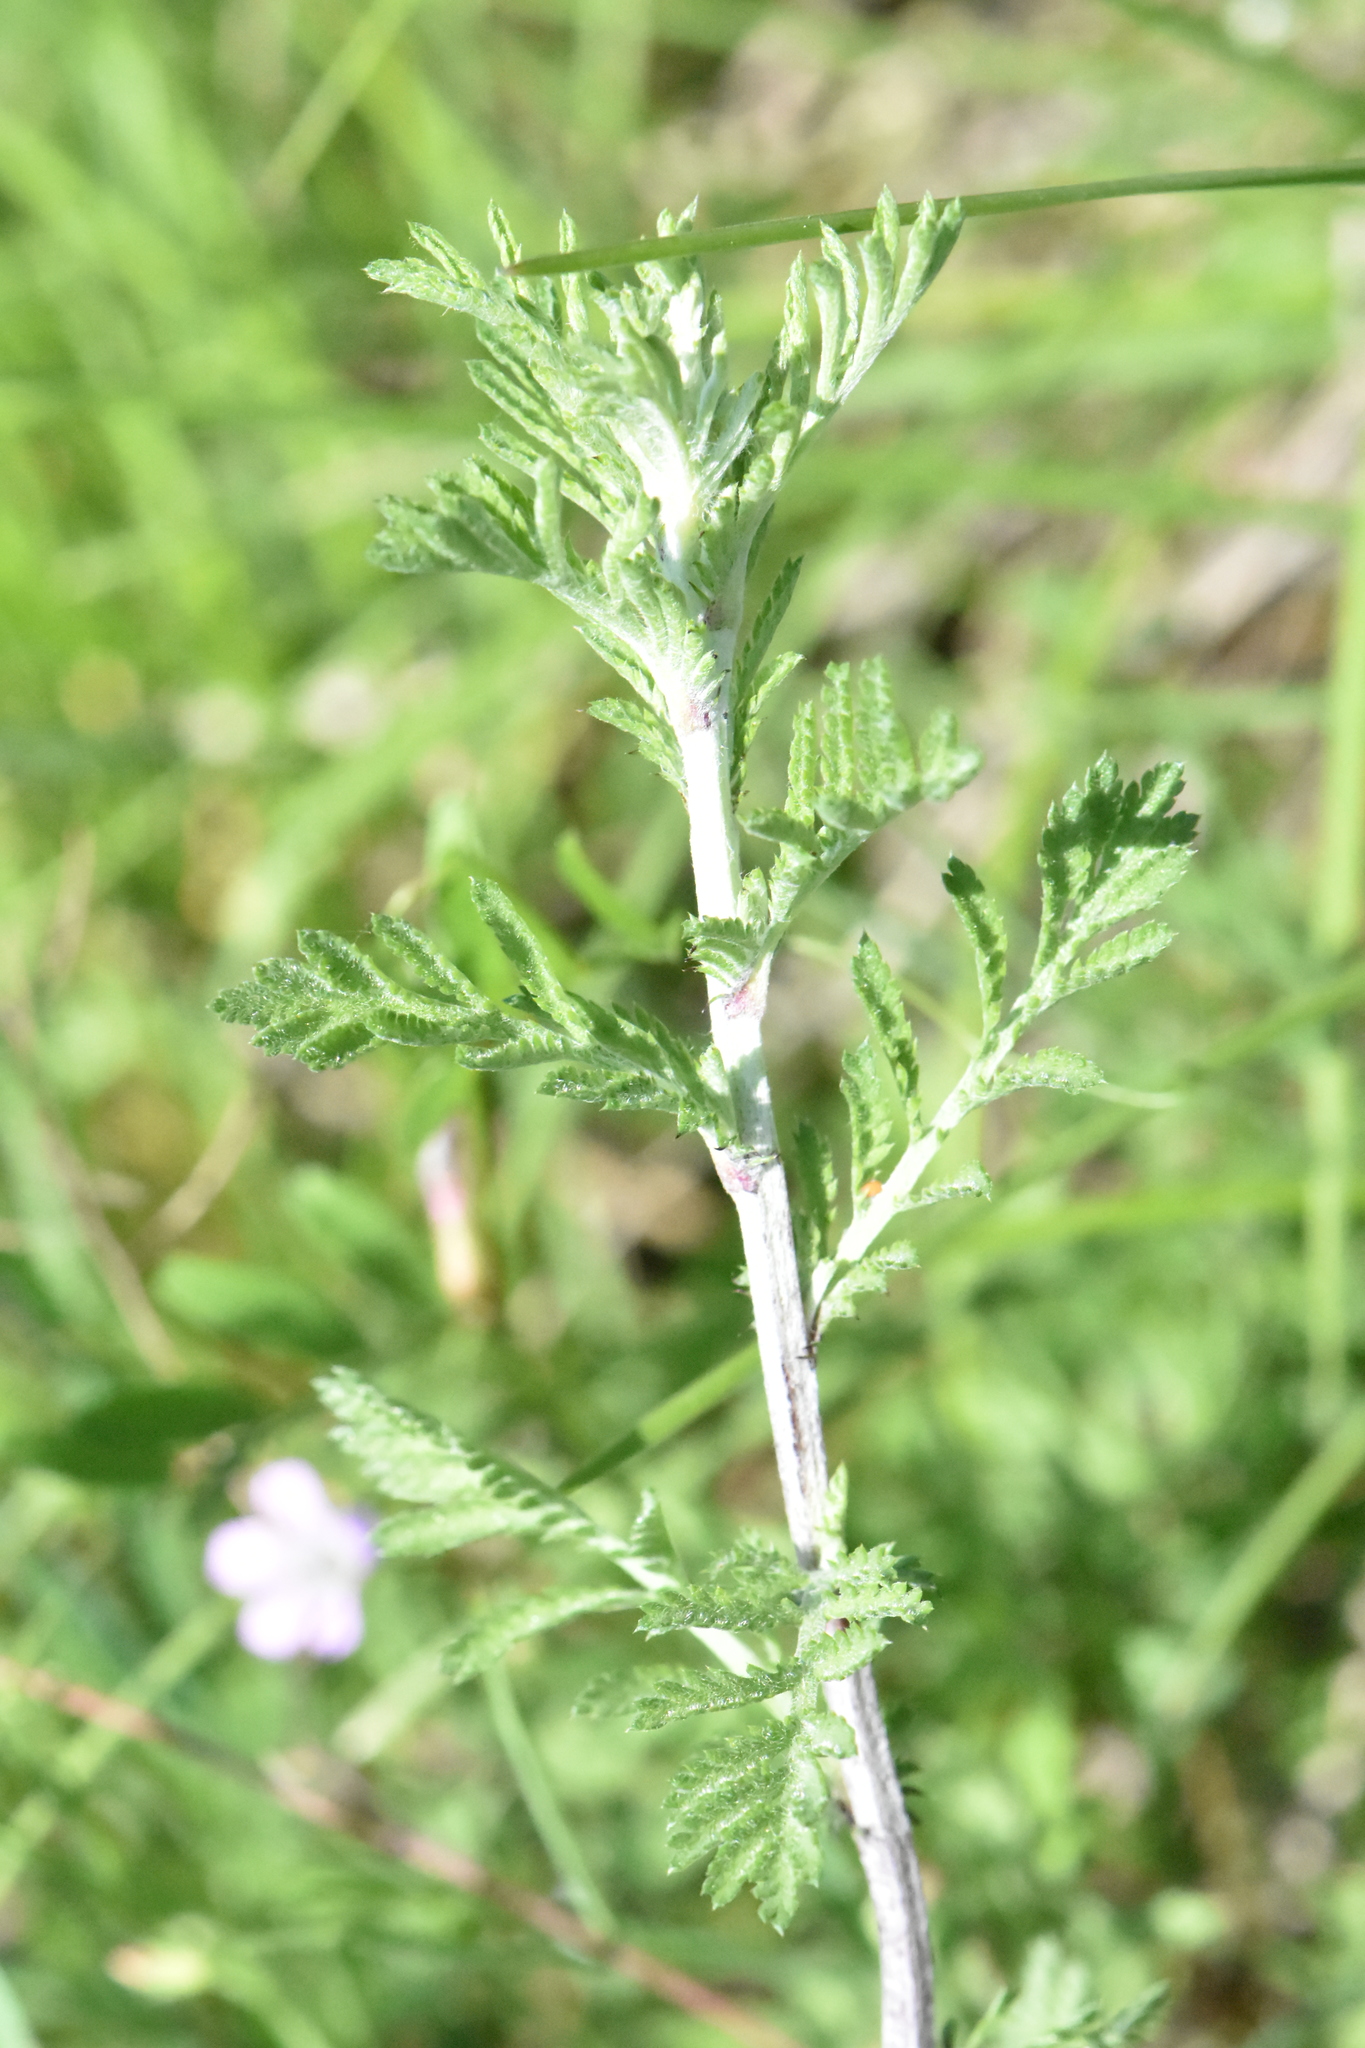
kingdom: Plantae
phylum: Tracheophyta
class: Magnoliopsida
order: Asterales
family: Asteraceae
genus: Cota
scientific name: Cota tinctoria
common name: Golden chamomile
